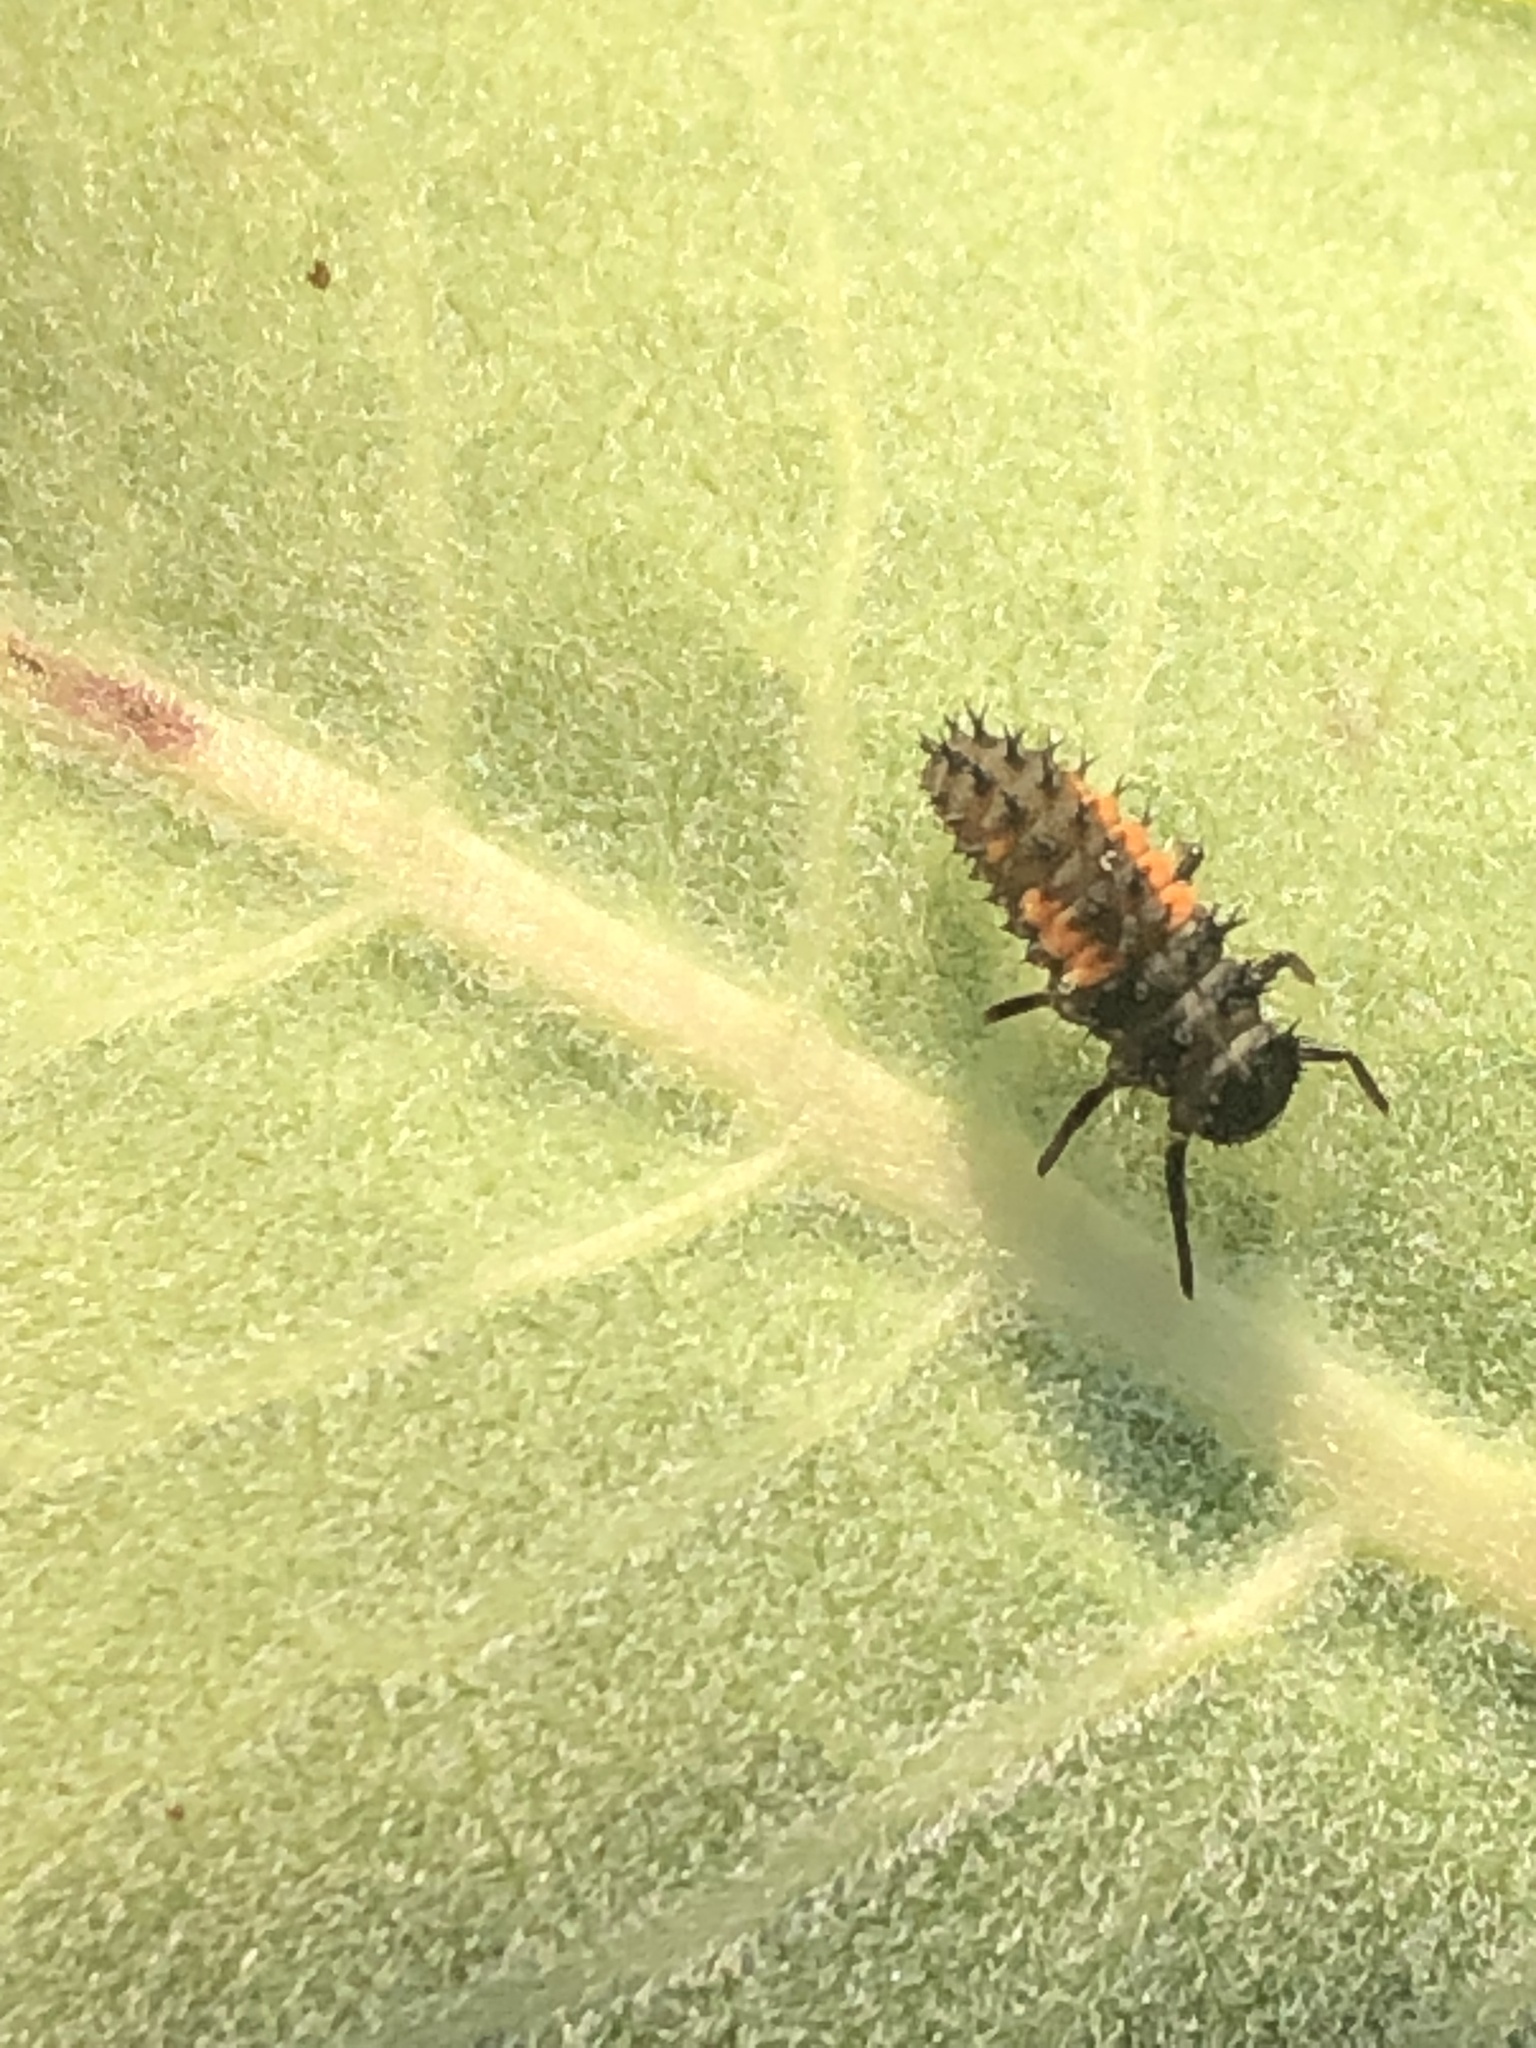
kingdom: Animalia
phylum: Arthropoda
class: Insecta
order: Coleoptera
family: Coccinellidae
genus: Harmonia
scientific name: Harmonia axyridis
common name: Harlequin ladybird
